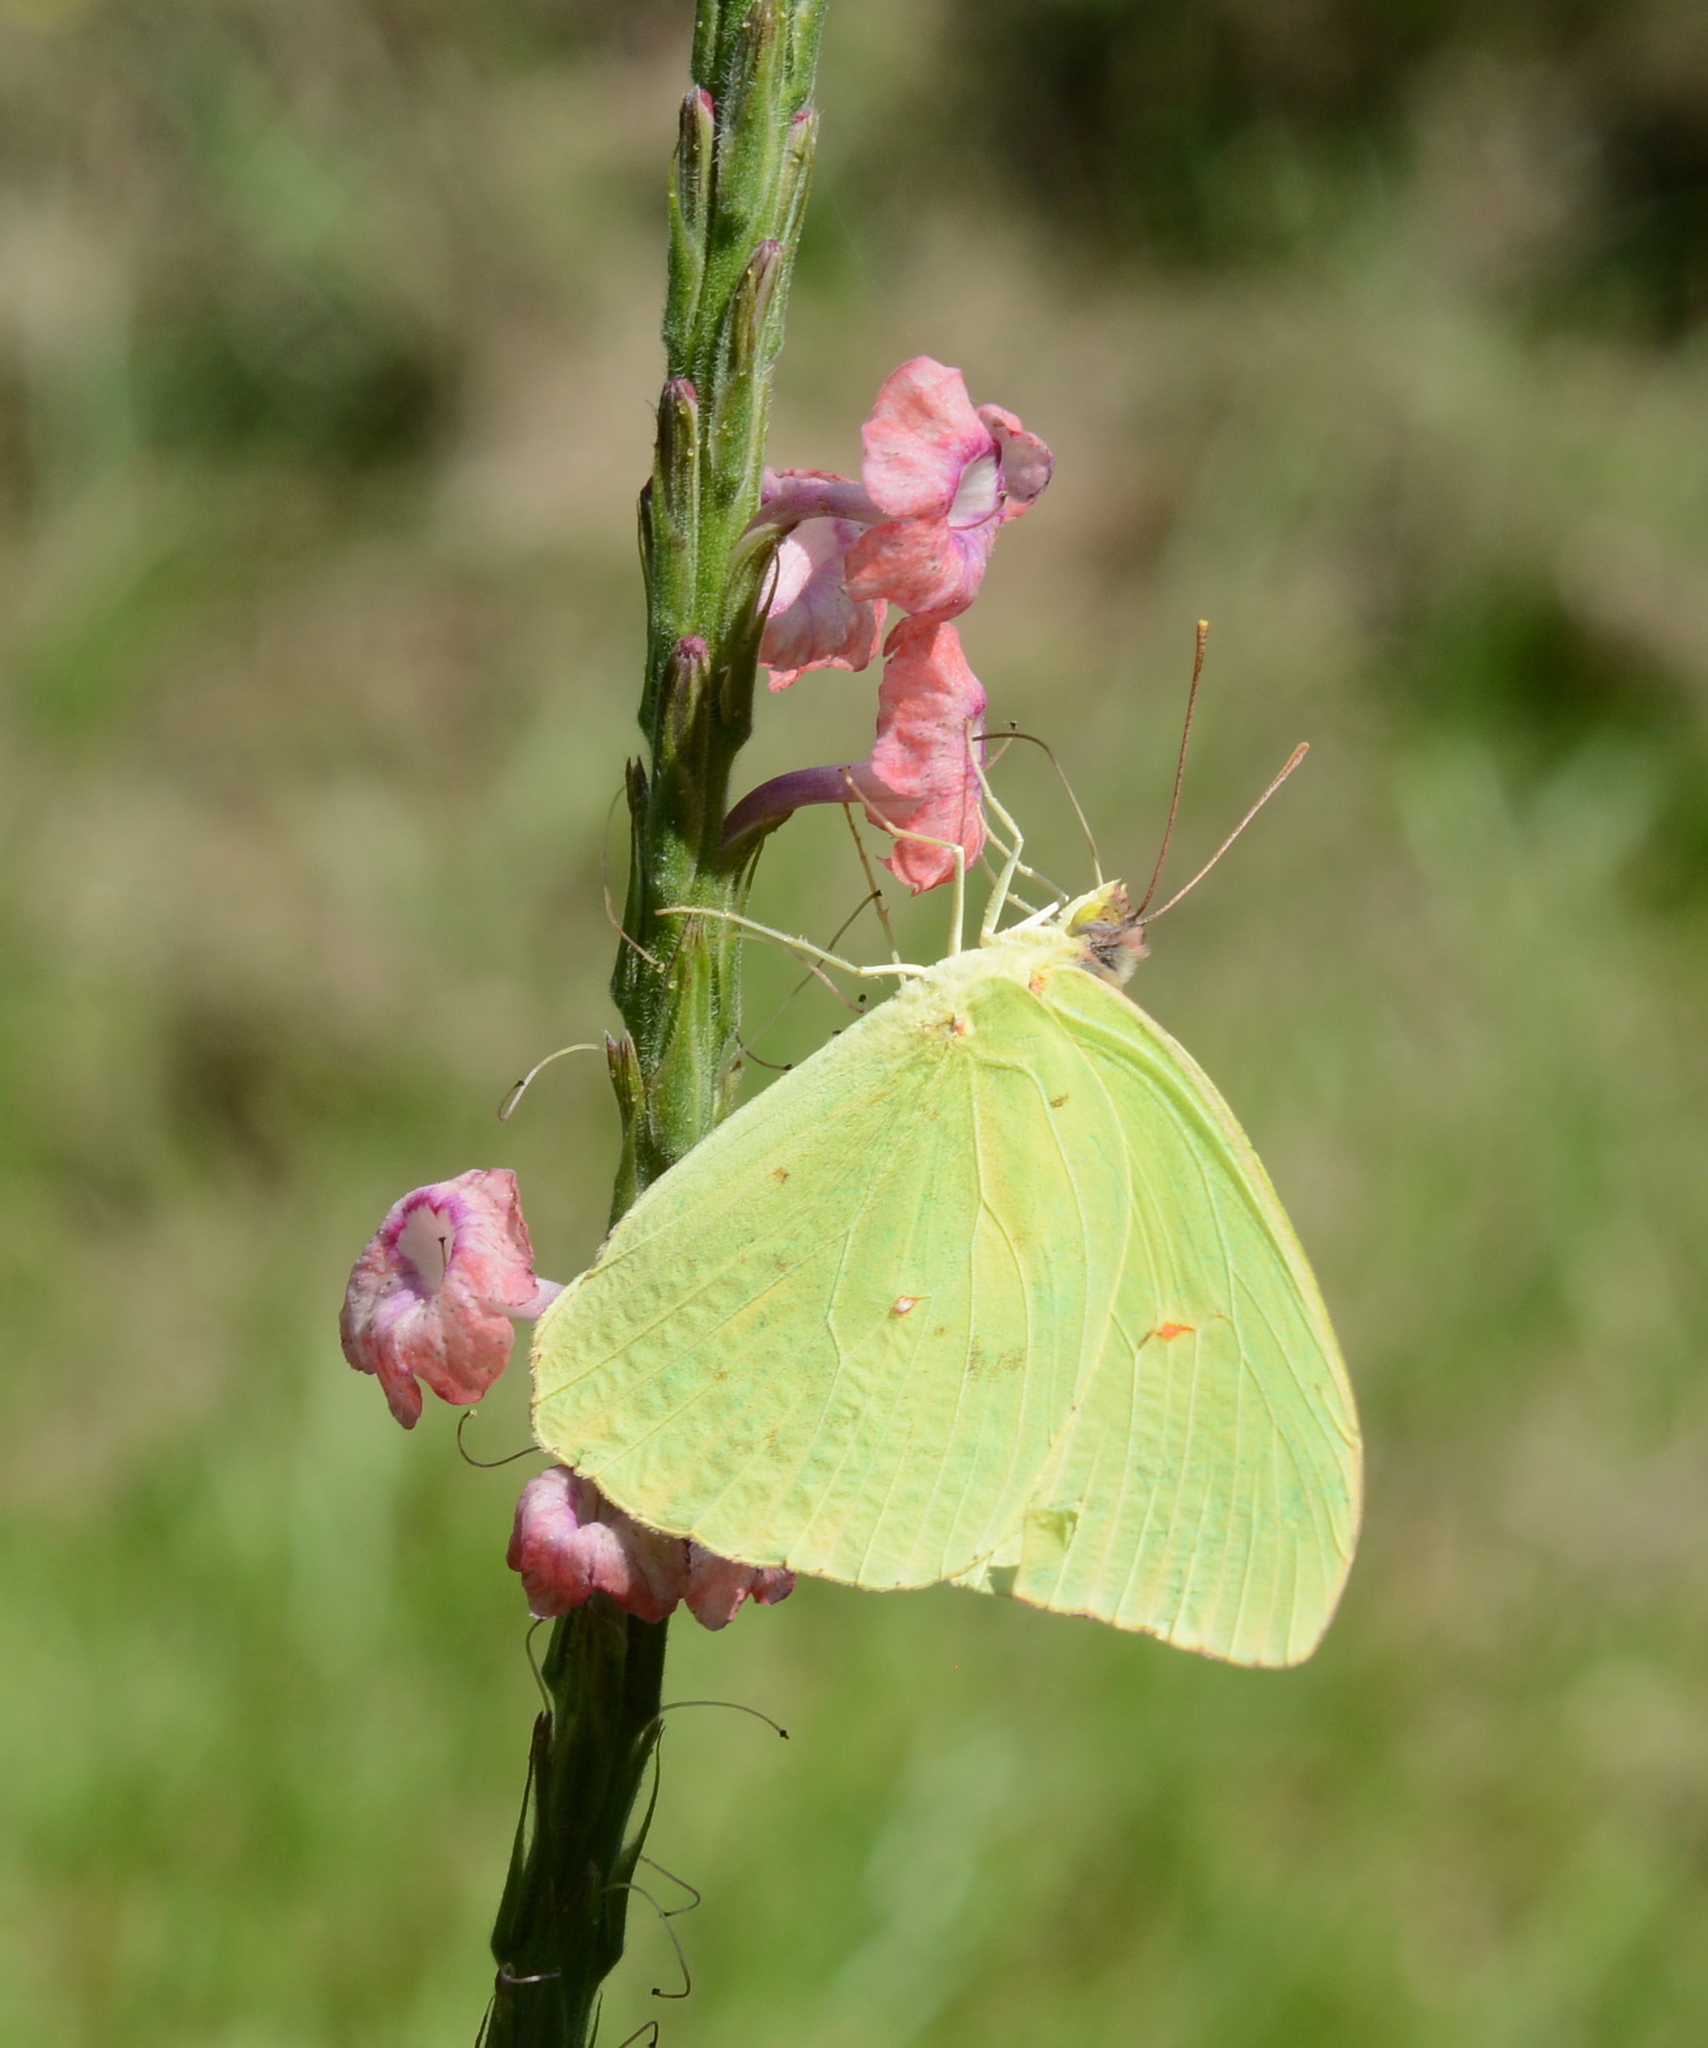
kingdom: Animalia
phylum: Arthropoda
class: Insecta
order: Lepidoptera
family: Pieridae
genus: Phoebis
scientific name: Phoebis sennae
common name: Cloudless sulphur
